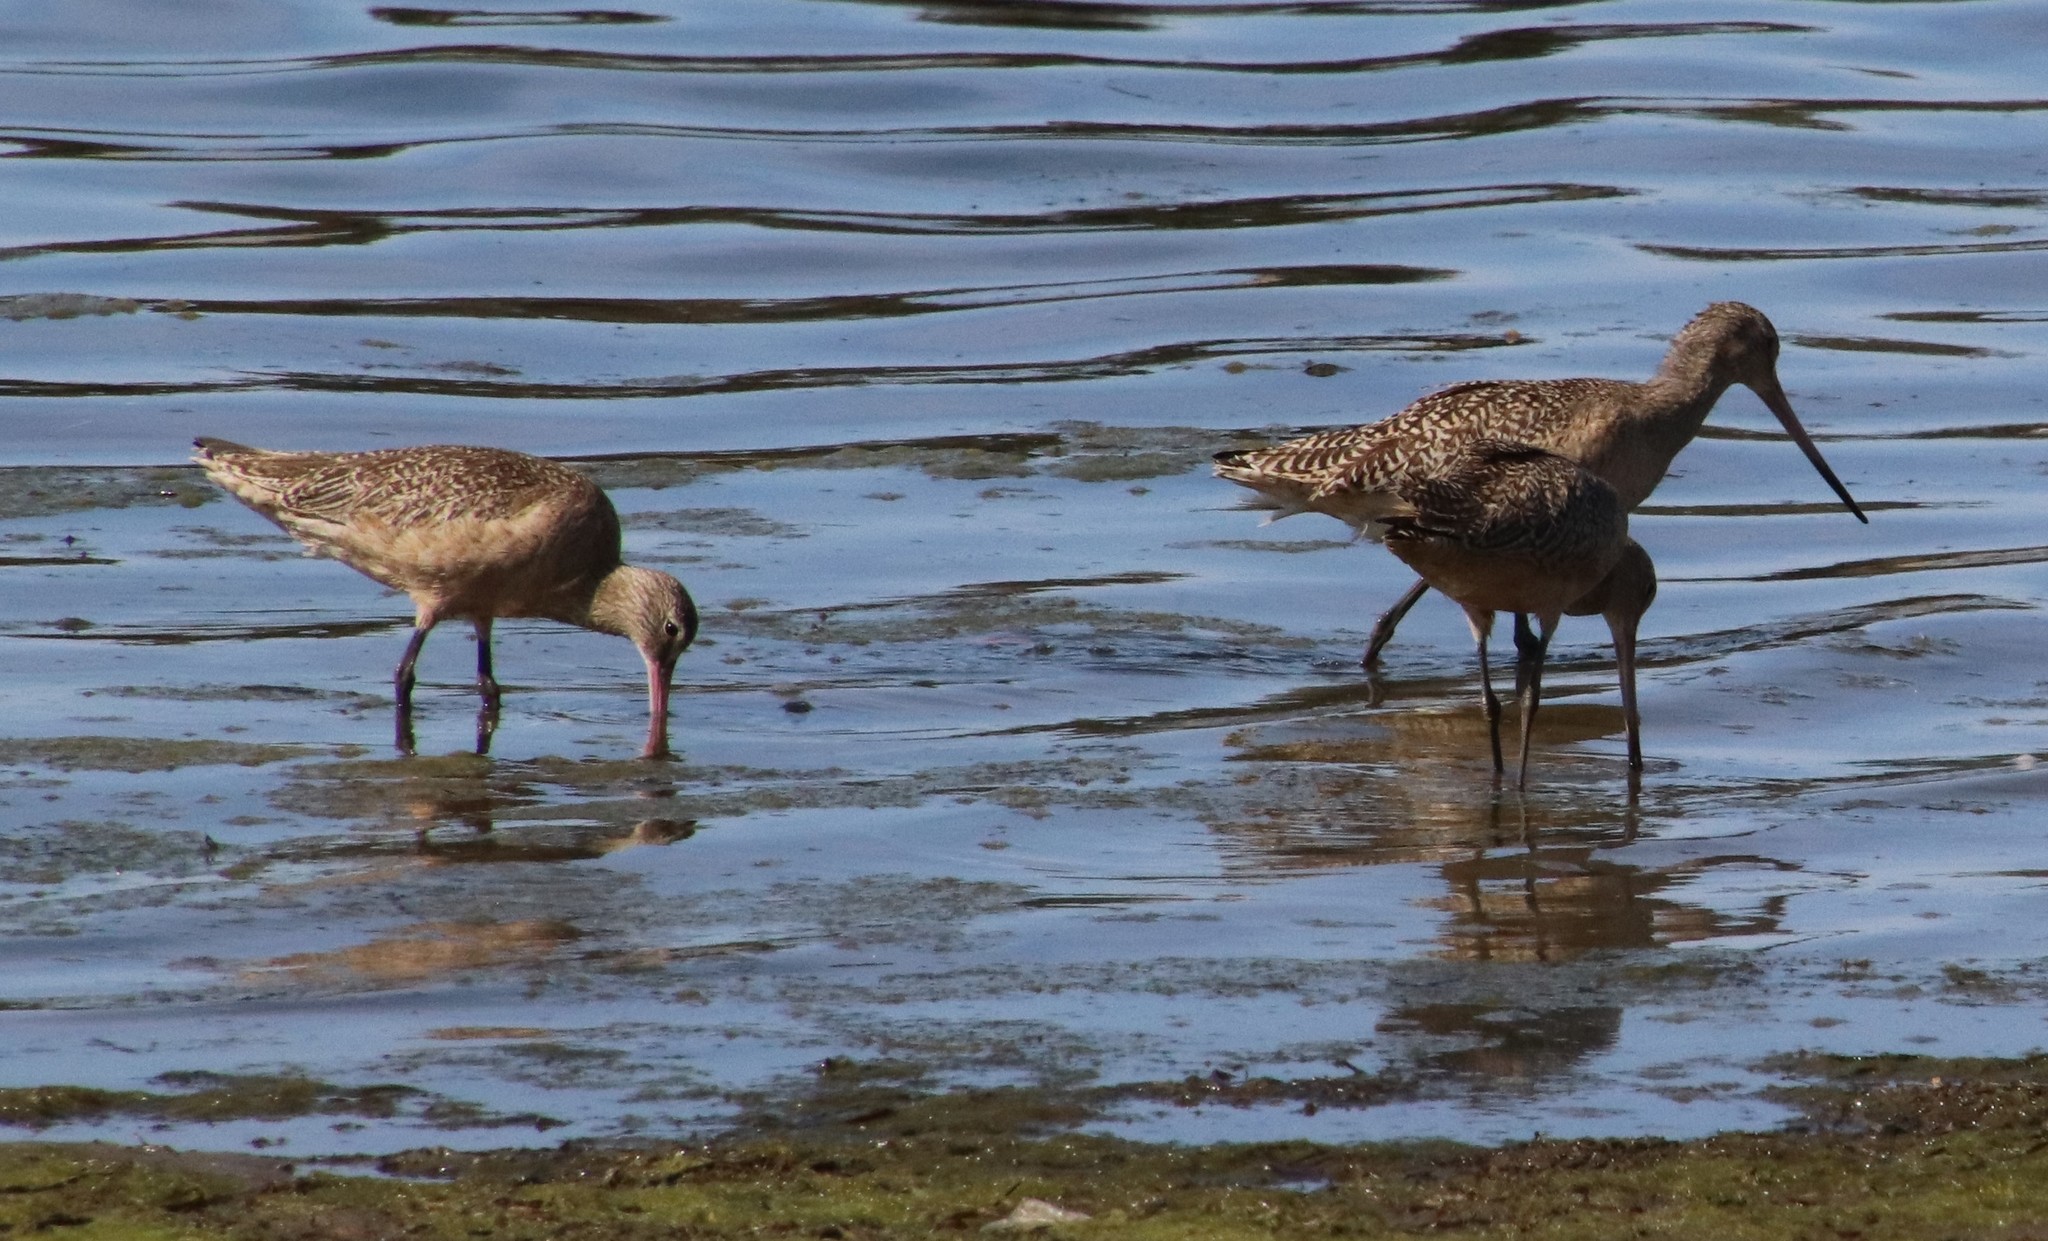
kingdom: Animalia
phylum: Chordata
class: Aves
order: Charadriiformes
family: Scolopacidae
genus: Limosa
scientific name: Limosa fedoa
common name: Marbled godwit
